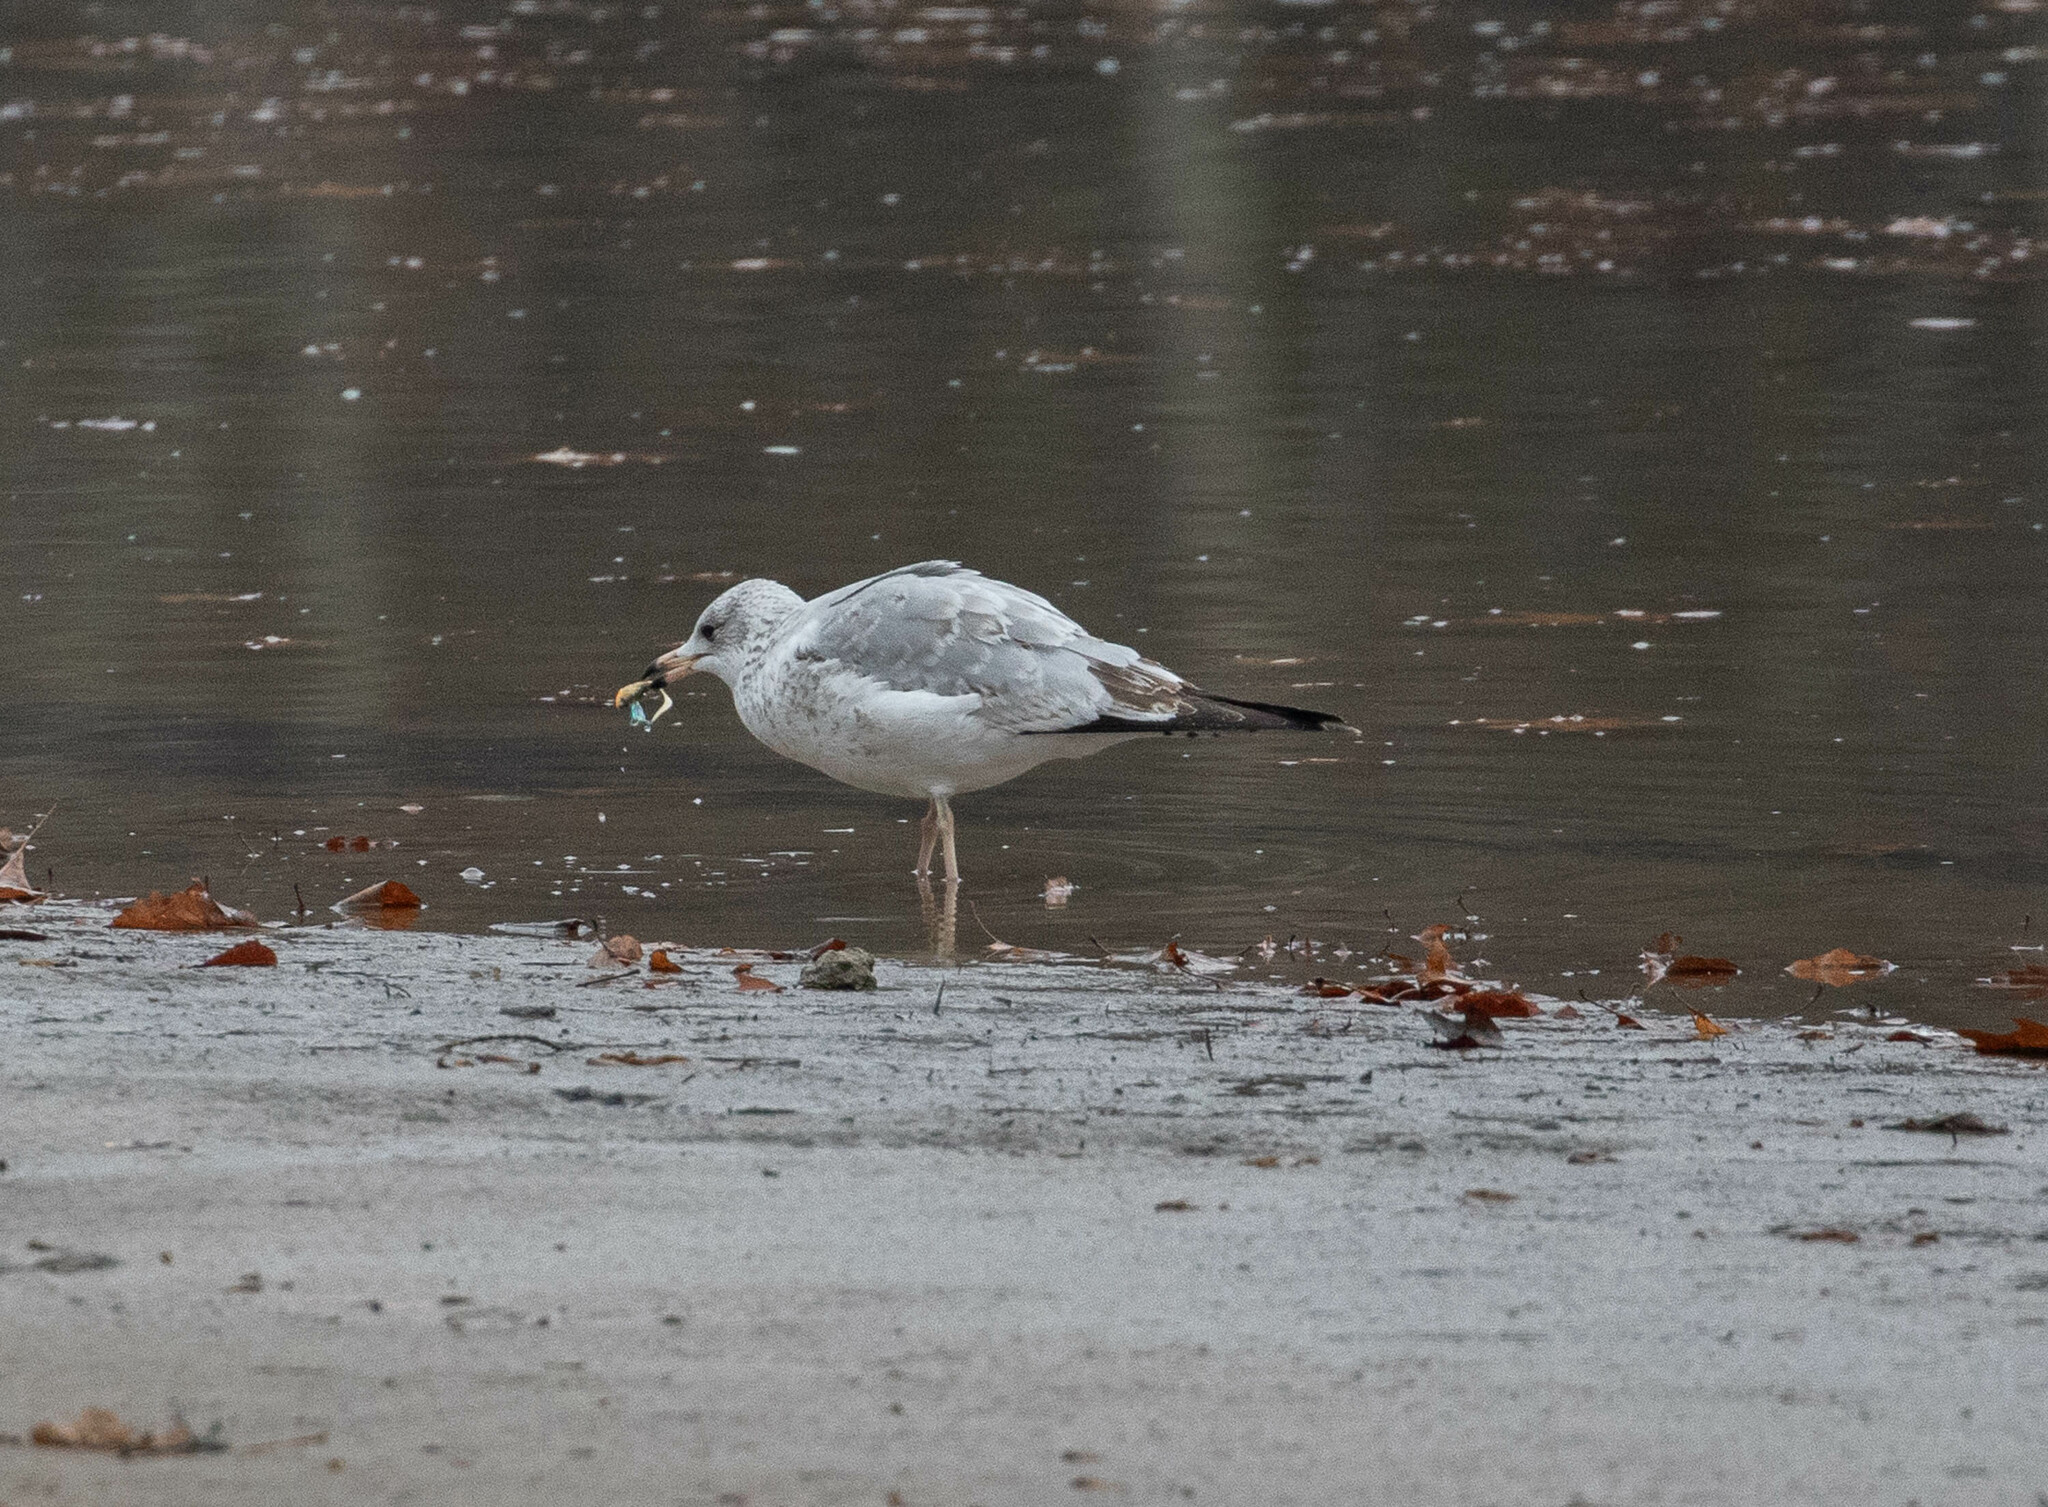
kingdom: Animalia
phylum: Chordata
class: Aves
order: Charadriiformes
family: Laridae
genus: Larus
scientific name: Larus delawarensis
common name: Ring-billed gull
